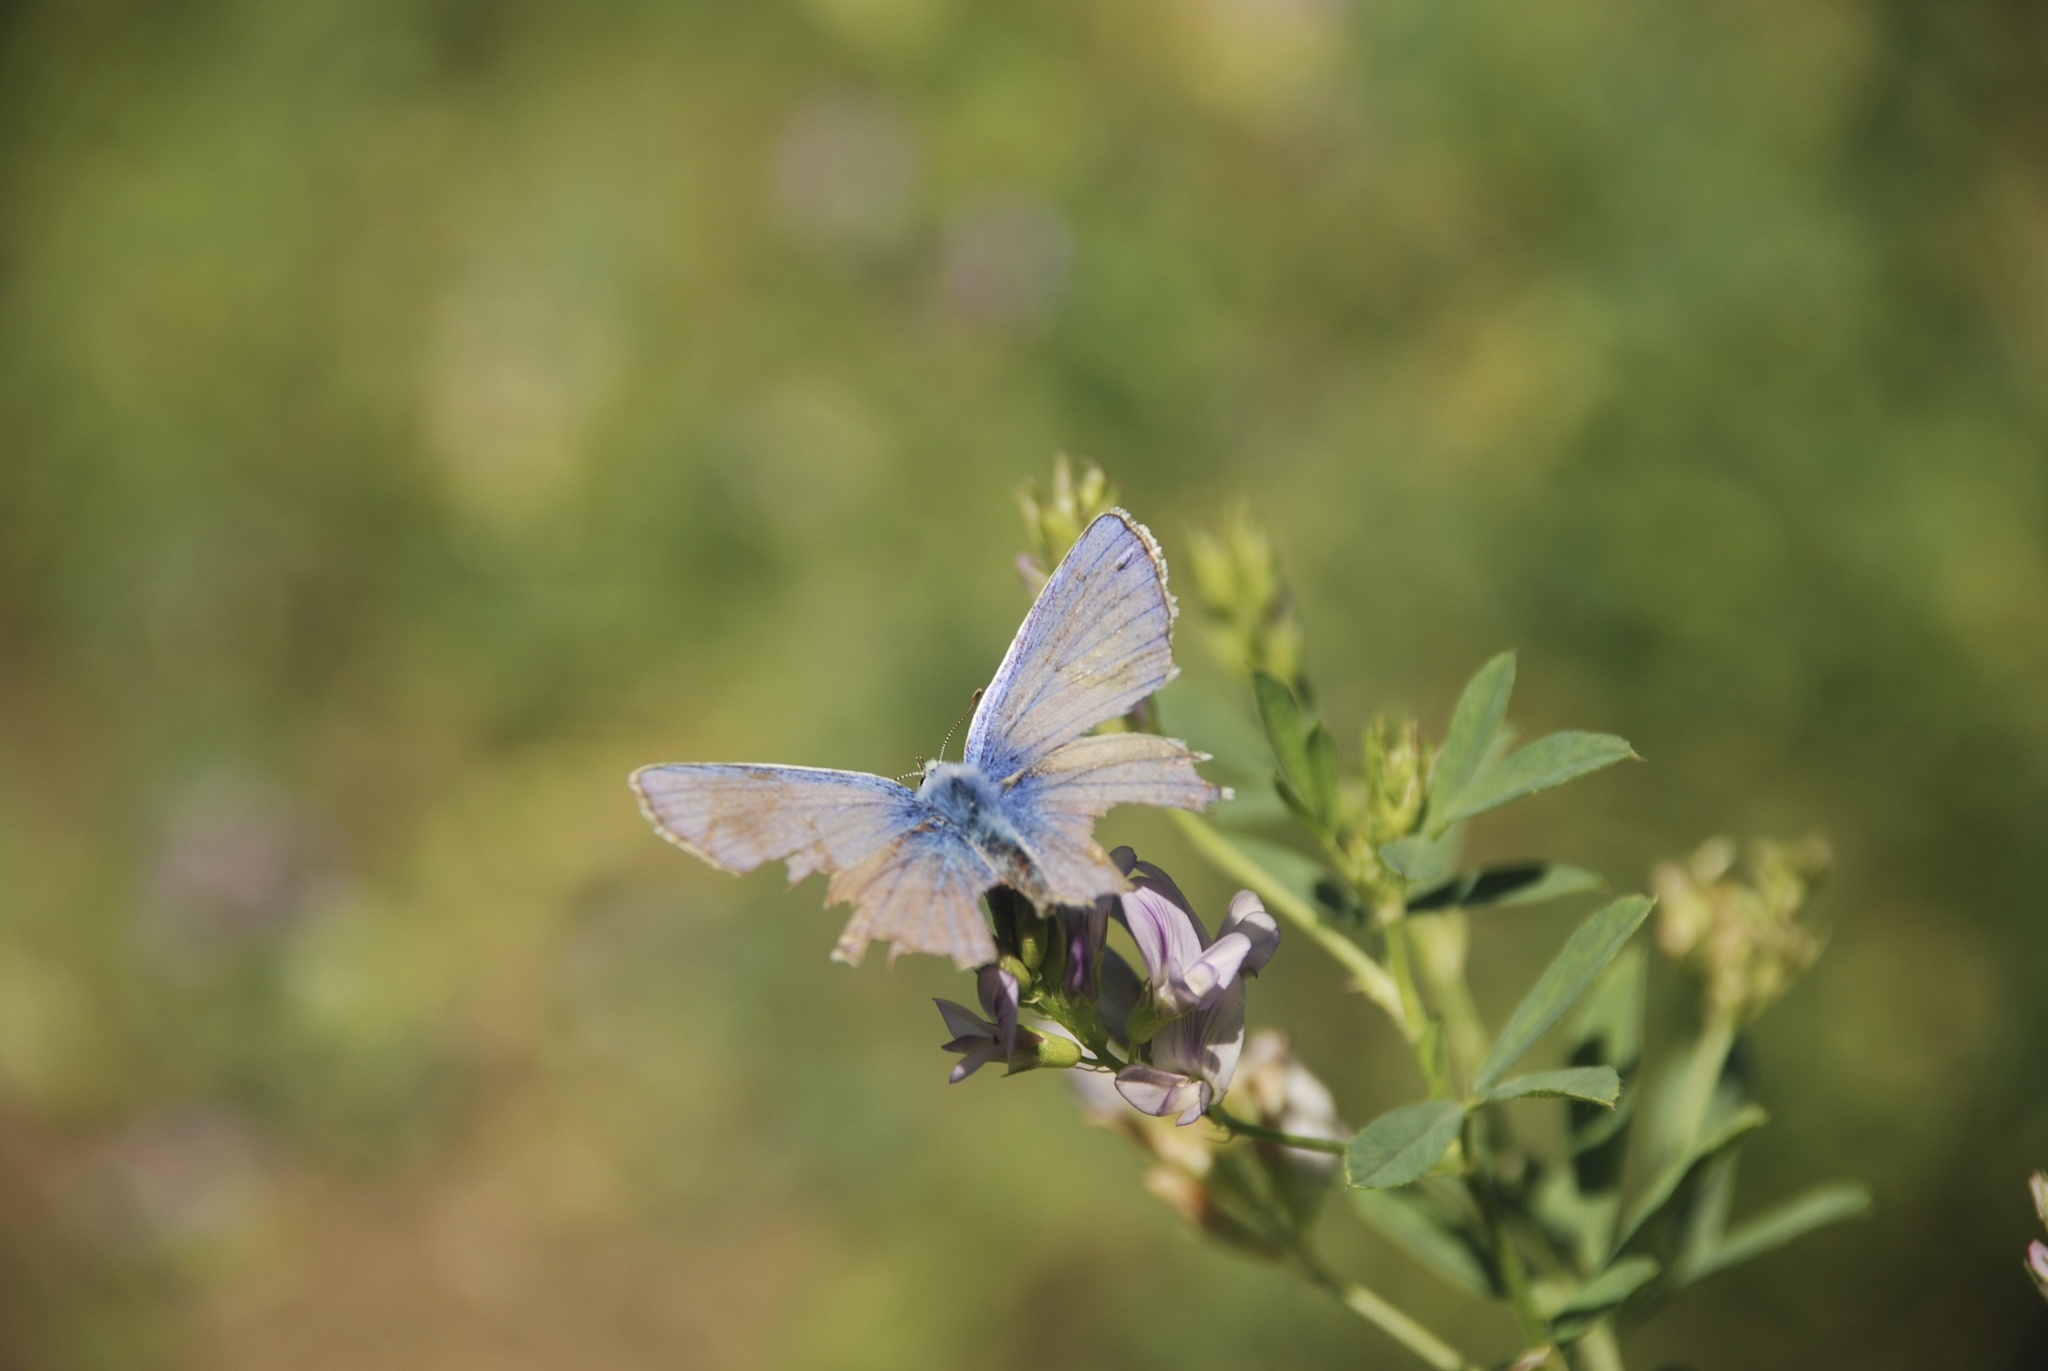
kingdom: Animalia
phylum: Arthropoda
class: Insecta
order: Lepidoptera
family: Lycaenidae
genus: Polyommatus
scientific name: Polyommatus icarus
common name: Common blue
